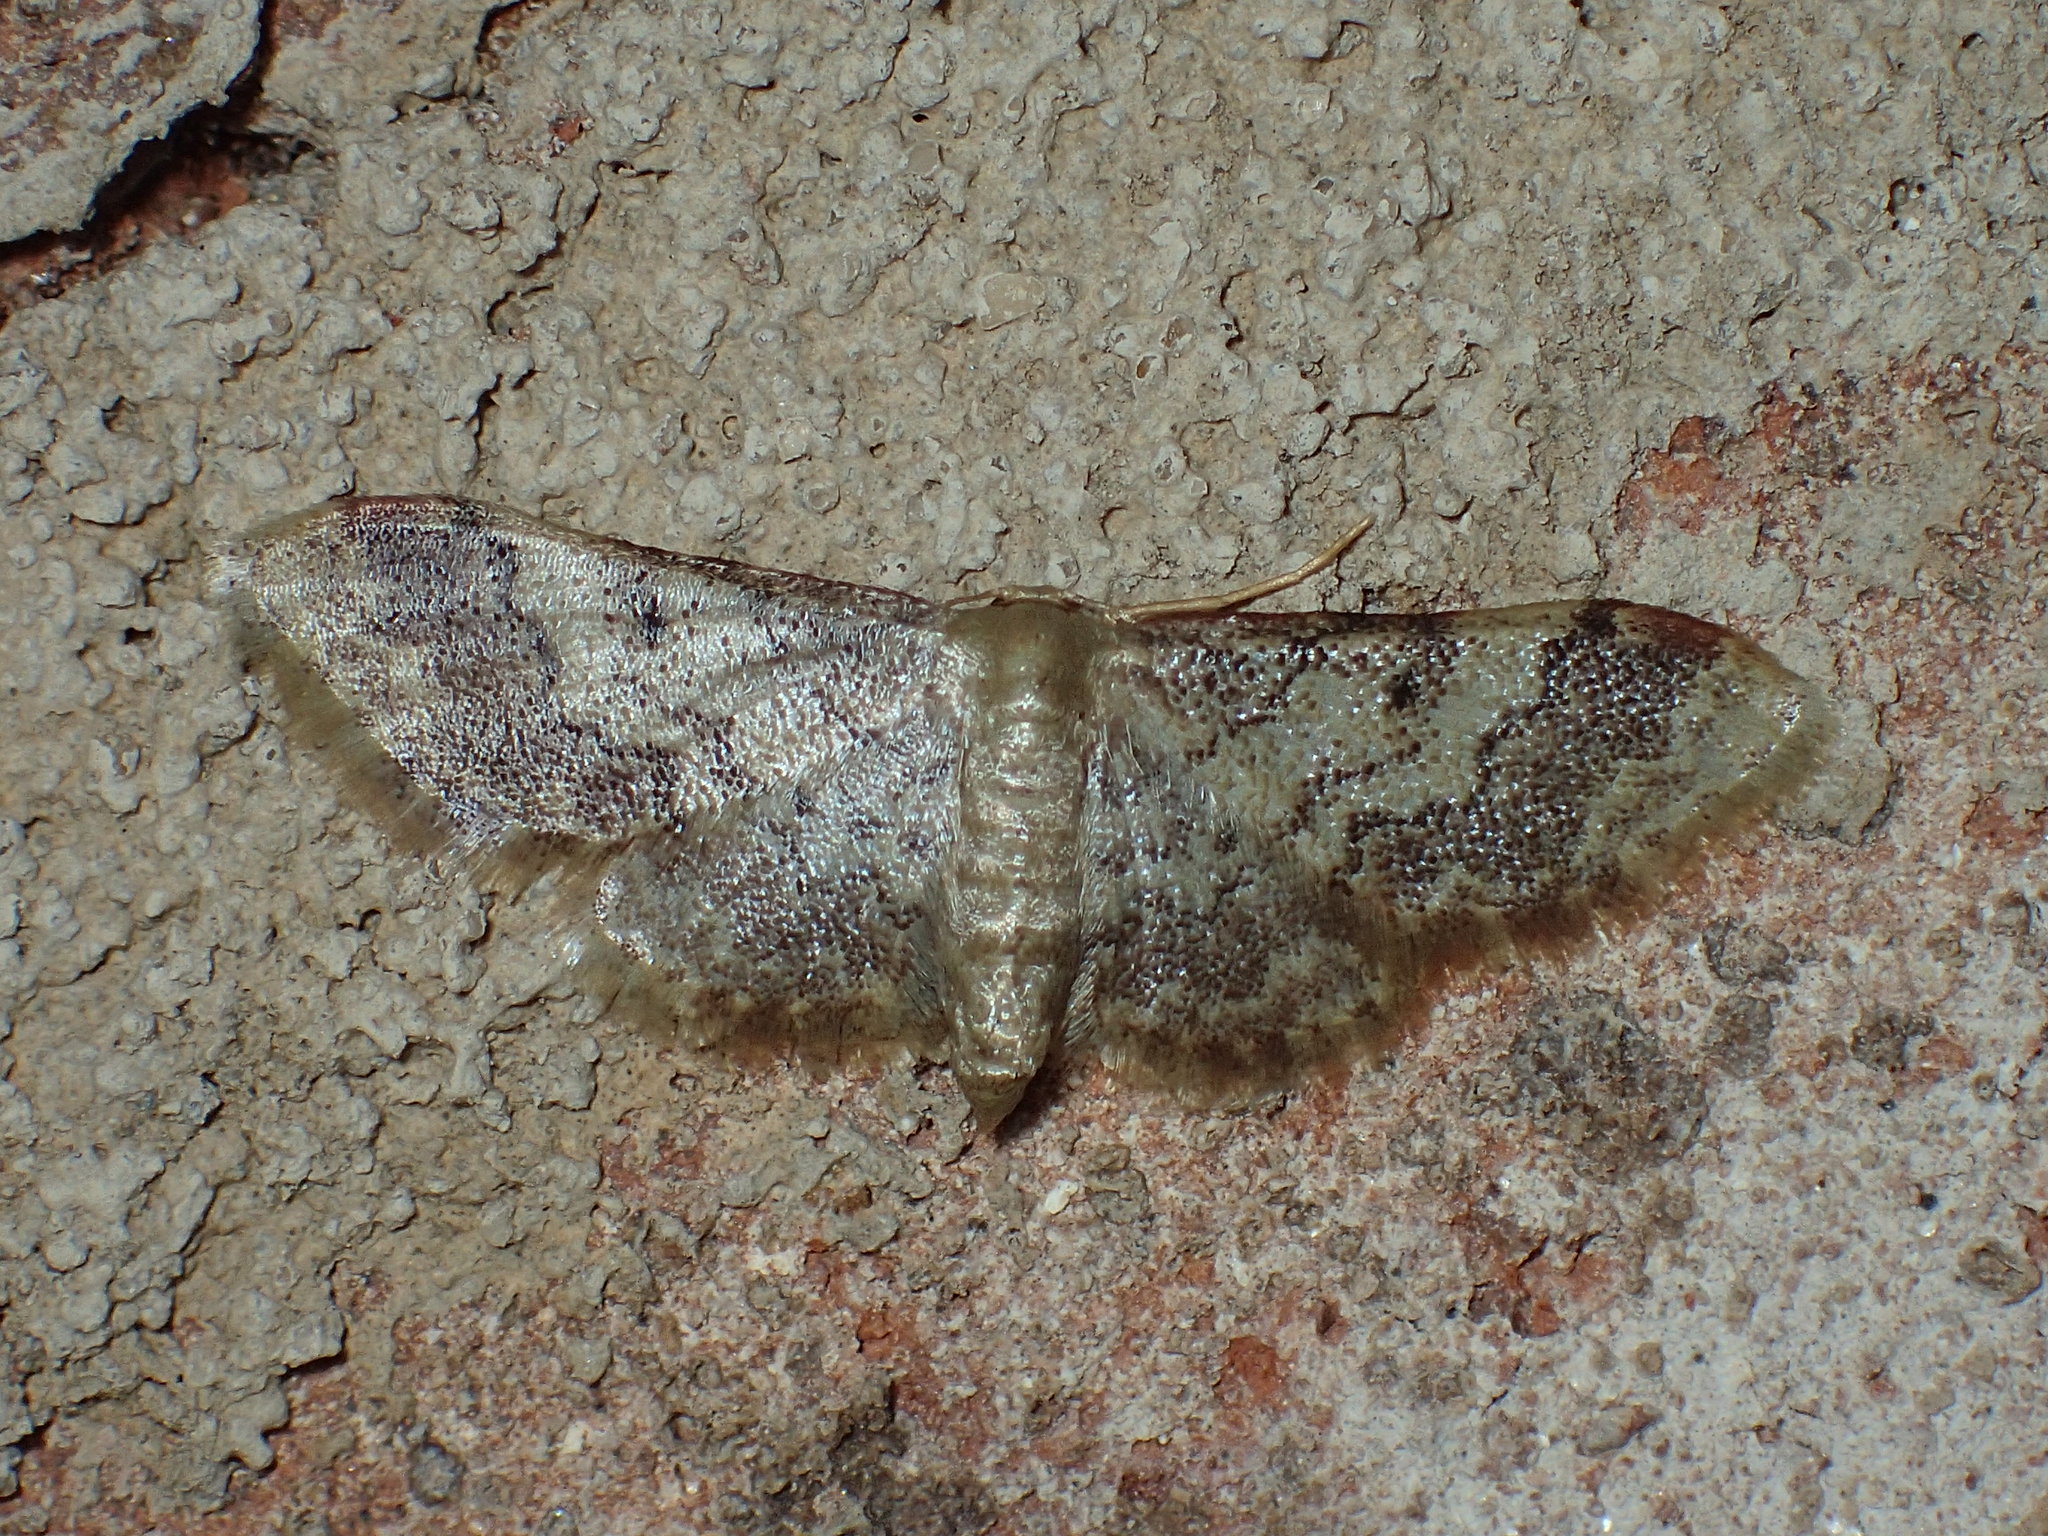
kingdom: Animalia
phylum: Arthropoda
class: Insecta
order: Lepidoptera
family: Geometridae
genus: Idaea
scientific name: Idaea furciferata
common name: Notch-winged wave
